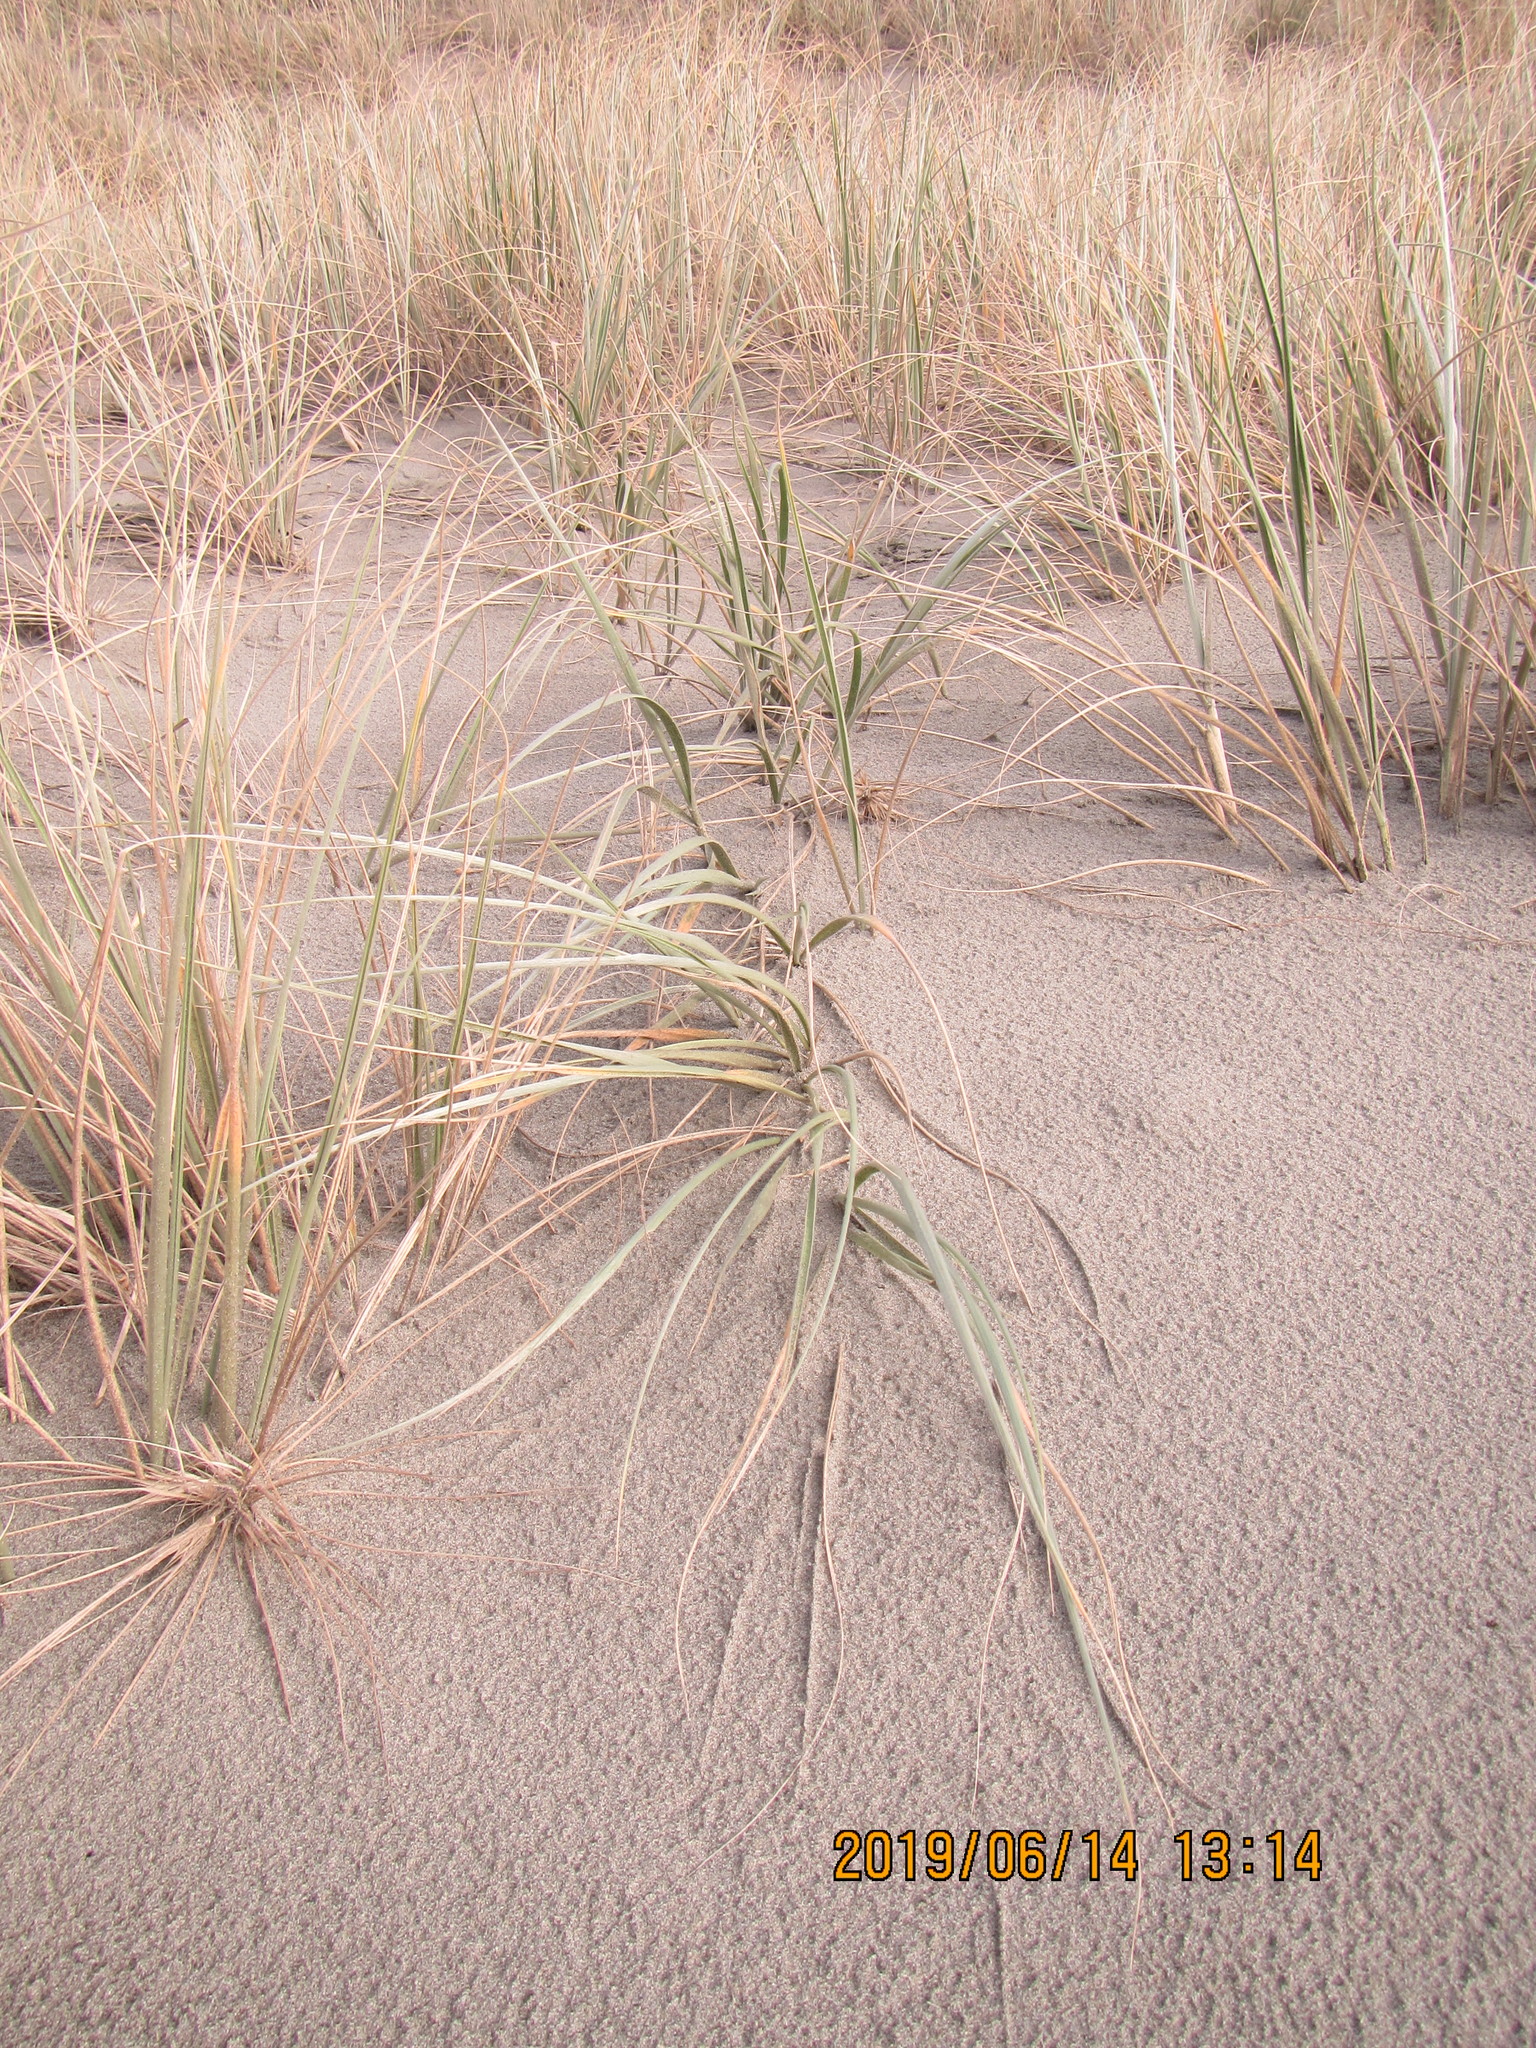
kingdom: Plantae
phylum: Tracheophyta
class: Liliopsida
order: Poales
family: Poaceae
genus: Spinifex
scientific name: Spinifex sericeus
